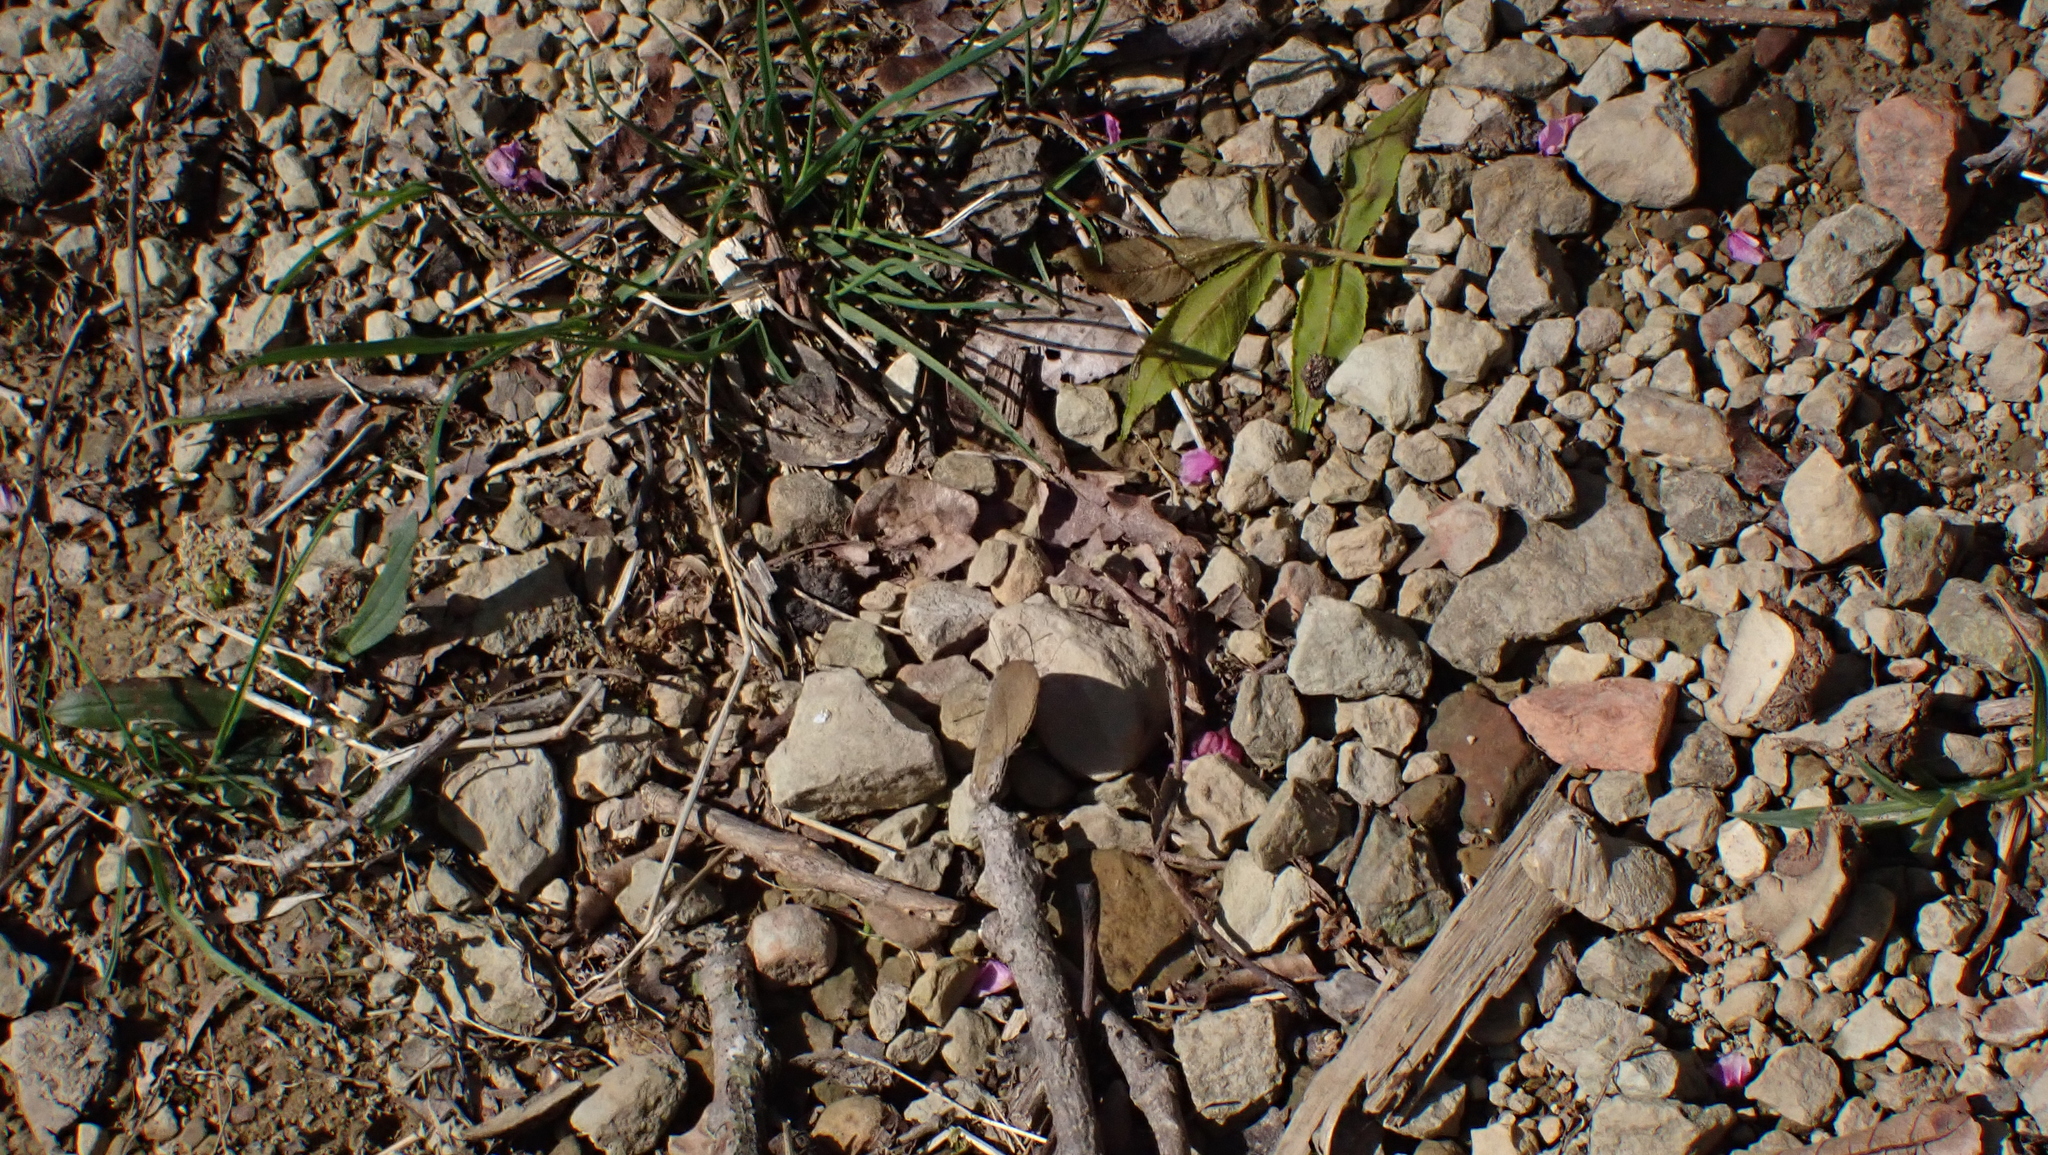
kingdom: Animalia
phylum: Arthropoda
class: Insecta
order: Lepidoptera
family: Nymphalidae
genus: Euptychia
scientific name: Euptychia cornelius
